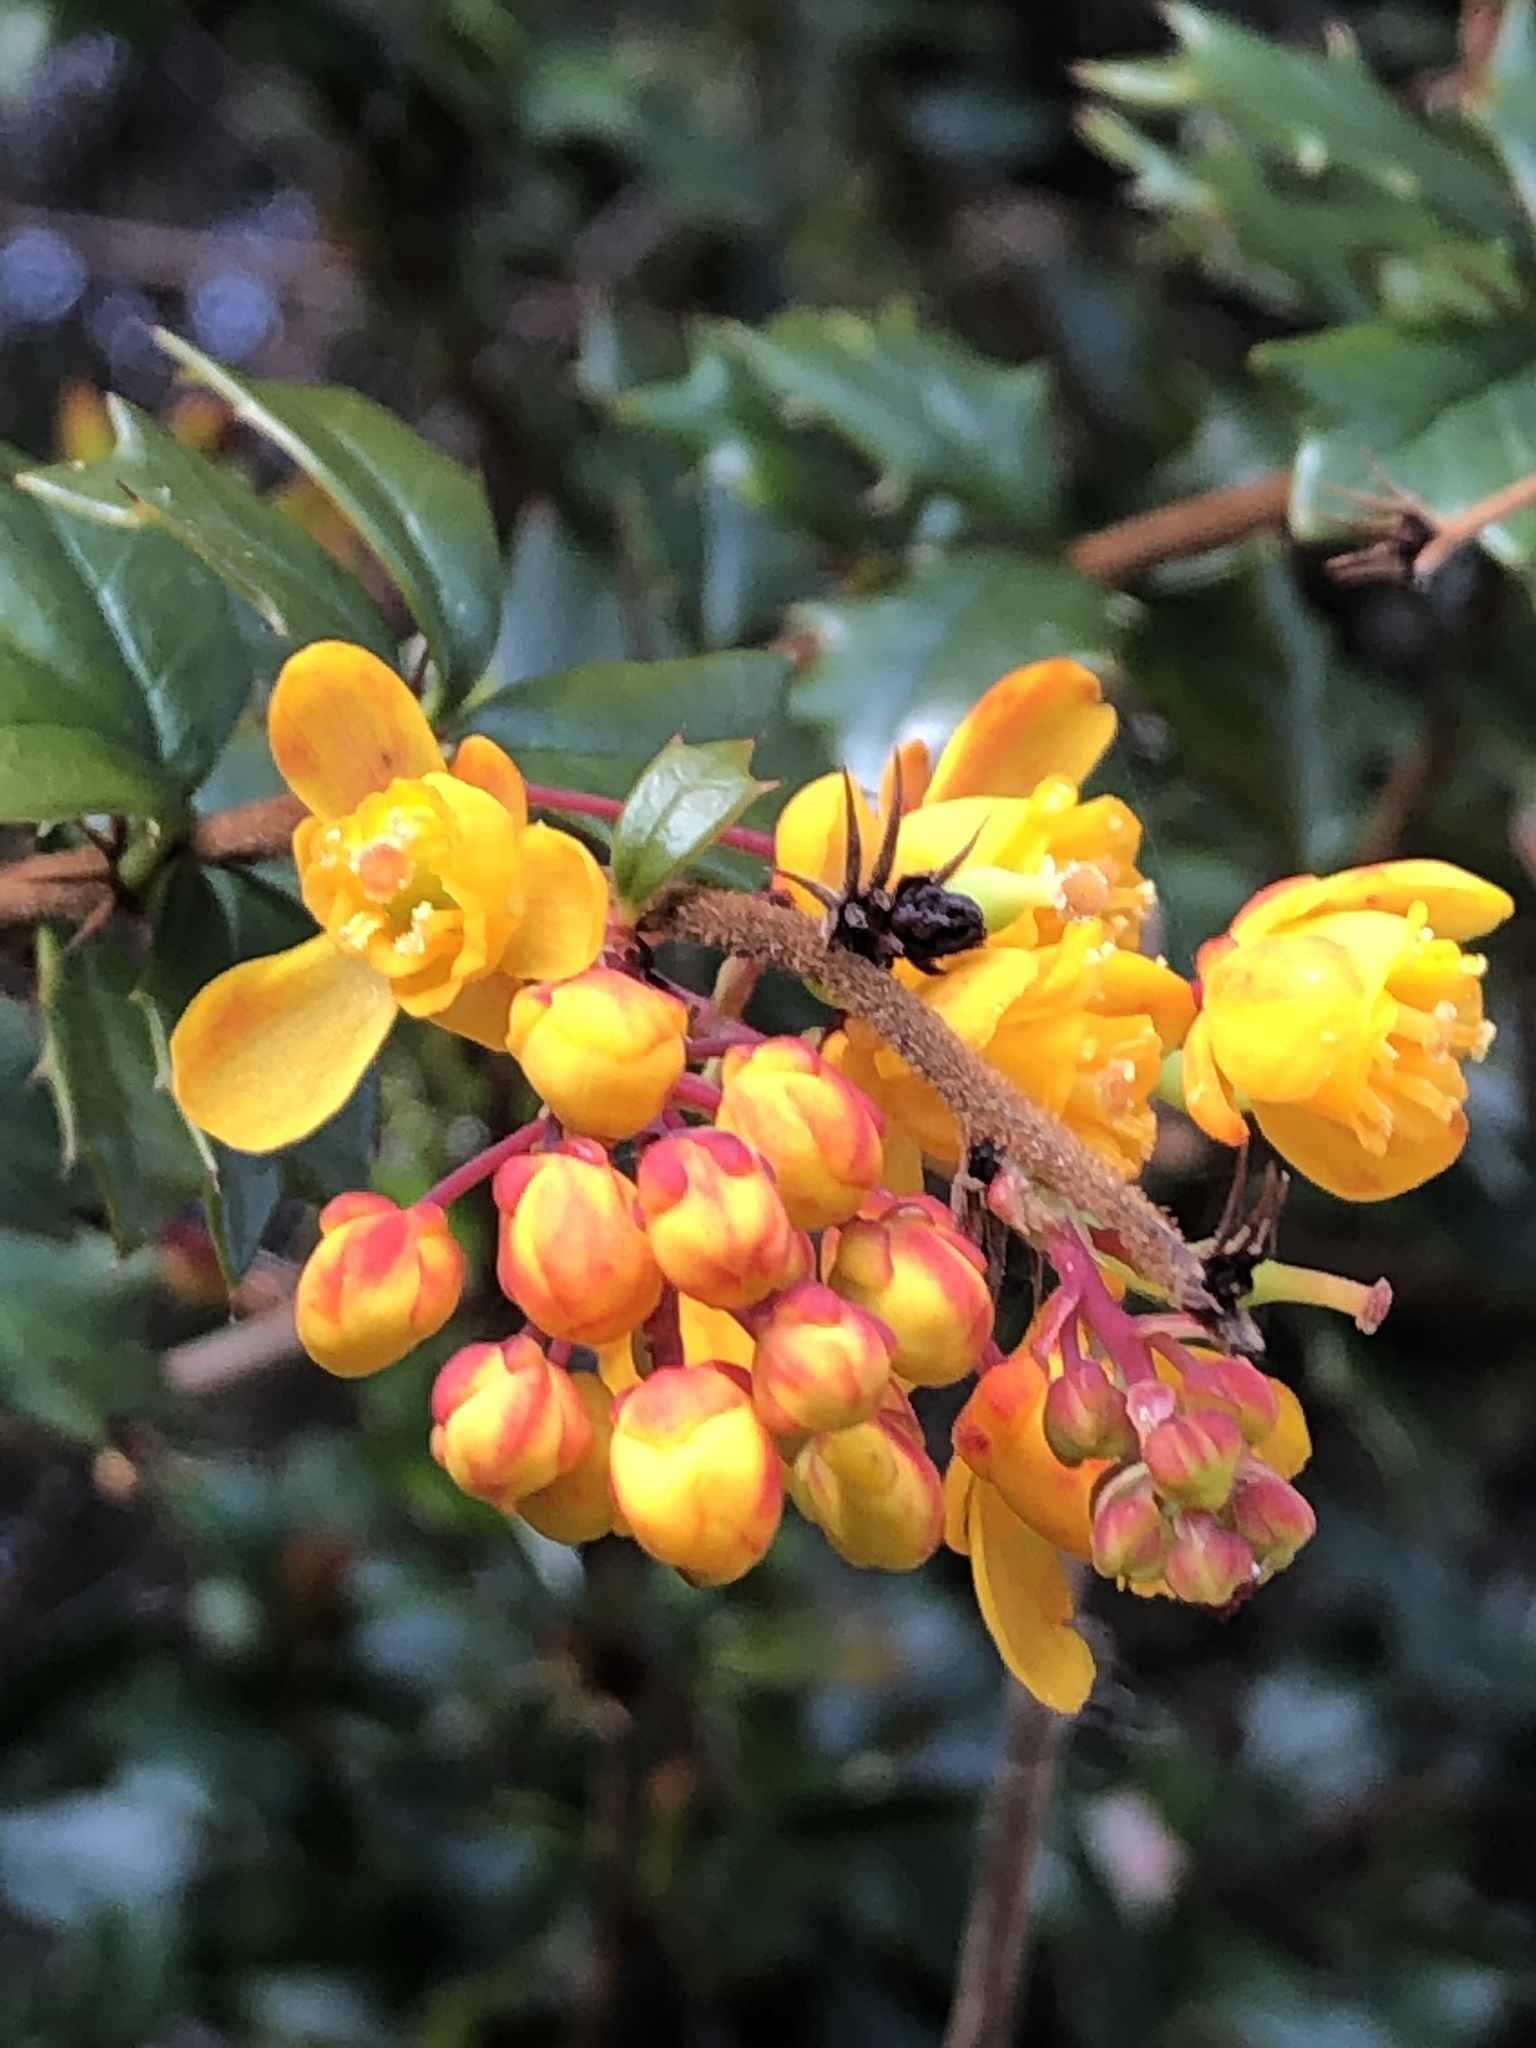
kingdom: Plantae
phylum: Tracheophyta
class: Magnoliopsida
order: Ranunculales
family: Berberidaceae
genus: Berberis
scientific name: Berberis darwinii
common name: Darwin's barberry
